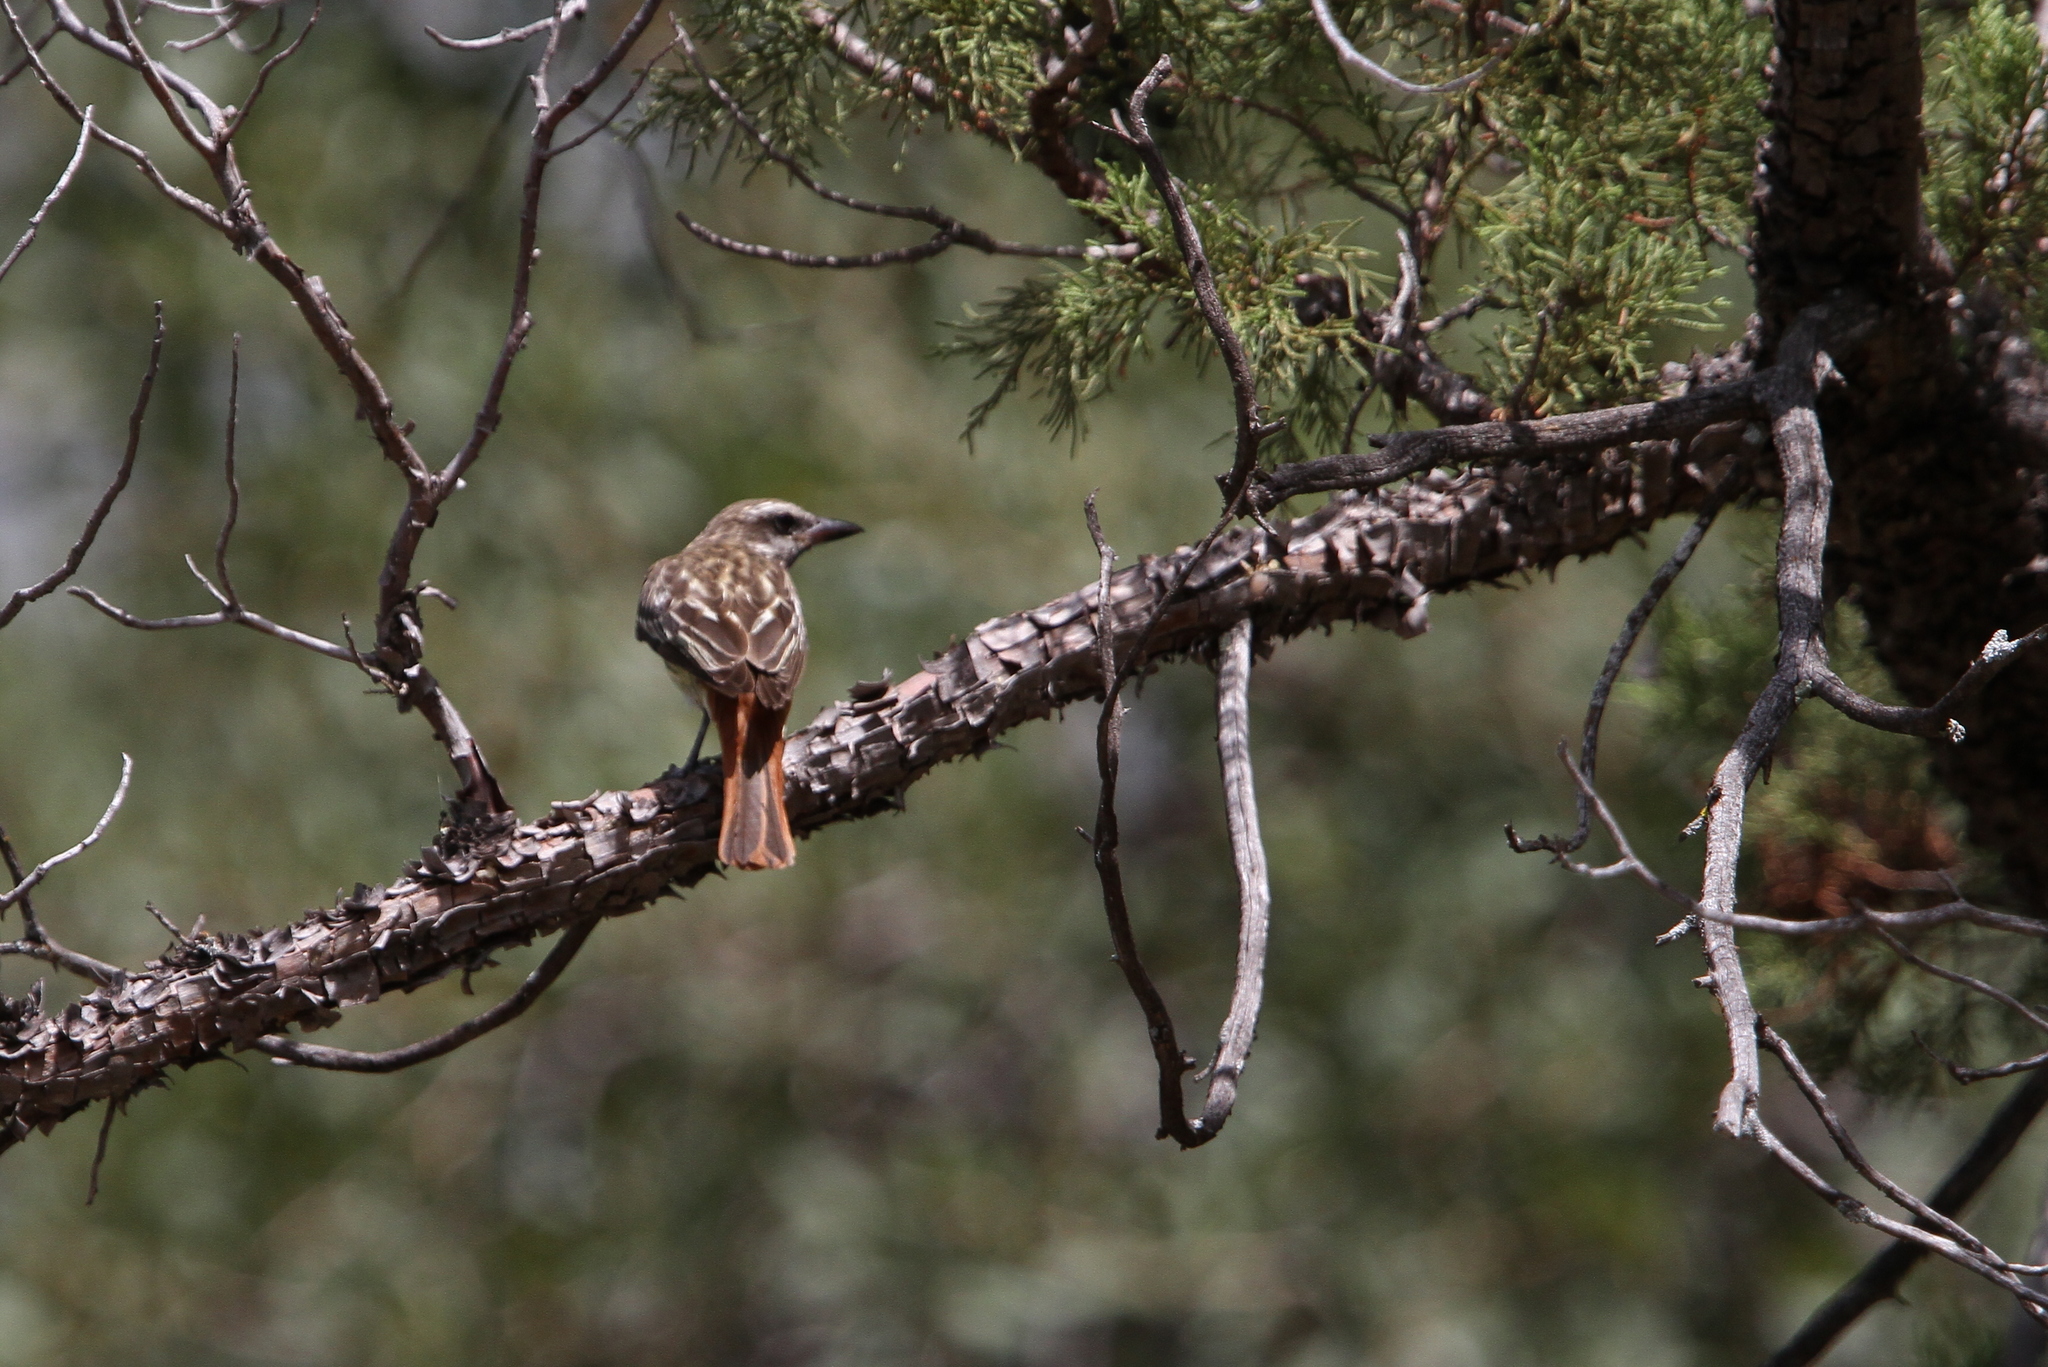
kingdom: Animalia
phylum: Chordata
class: Aves
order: Passeriformes
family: Tyrannidae
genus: Myiodynastes
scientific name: Myiodynastes luteiventris
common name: Sulphur-bellied flycatcher
